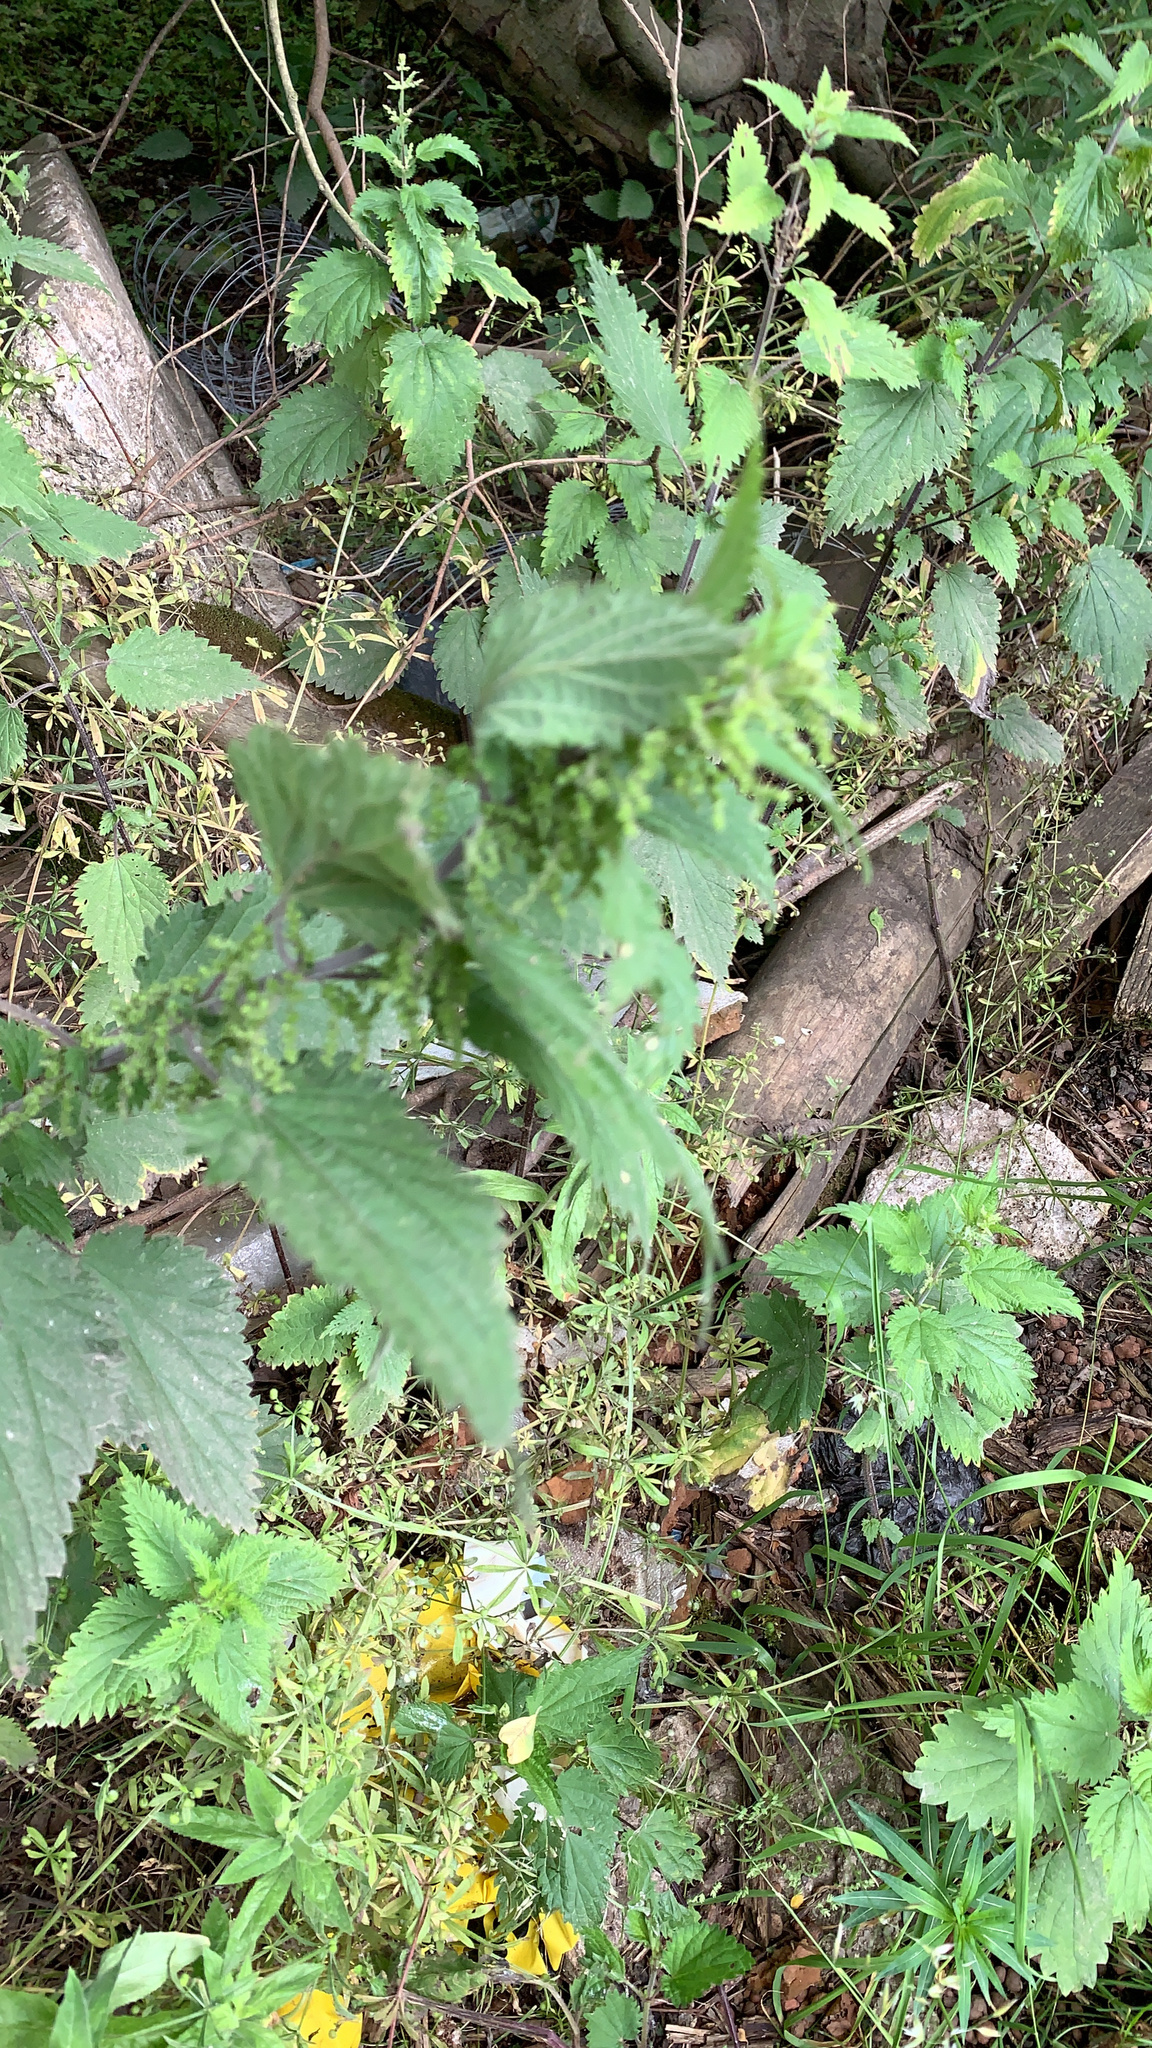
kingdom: Plantae
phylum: Tracheophyta
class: Magnoliopsida
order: Rosales
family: Urticaceae
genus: Urtica
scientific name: Urtica dioica
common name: Common nettle
